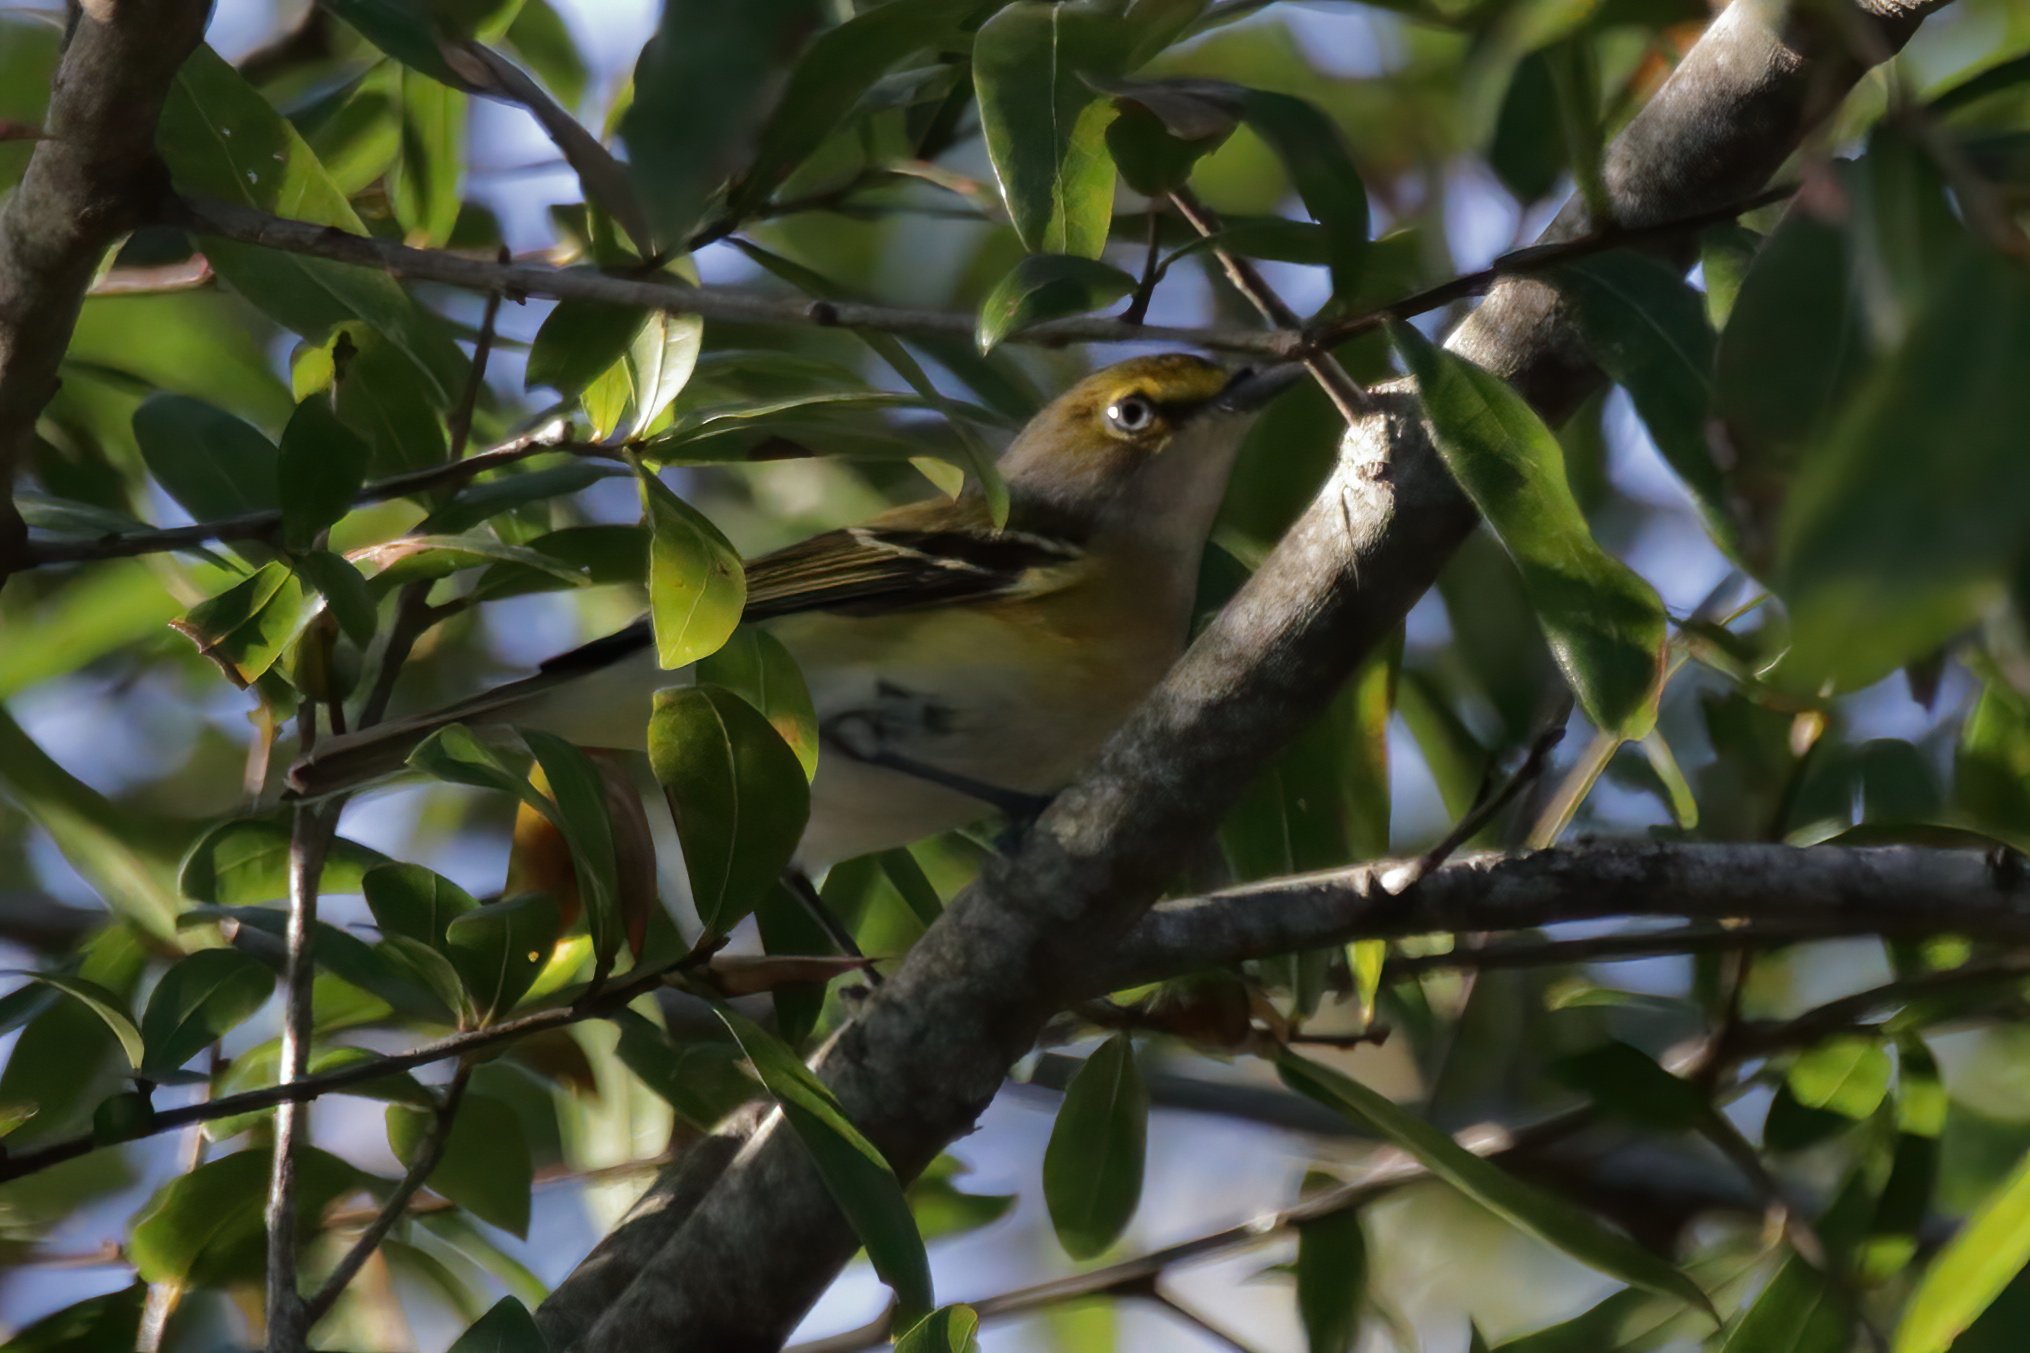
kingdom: Animalia
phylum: Chordata
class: Aves
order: Passeriformes
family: Vireonidae
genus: Vireo
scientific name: Vireo griseus
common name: White-eyed vireo
